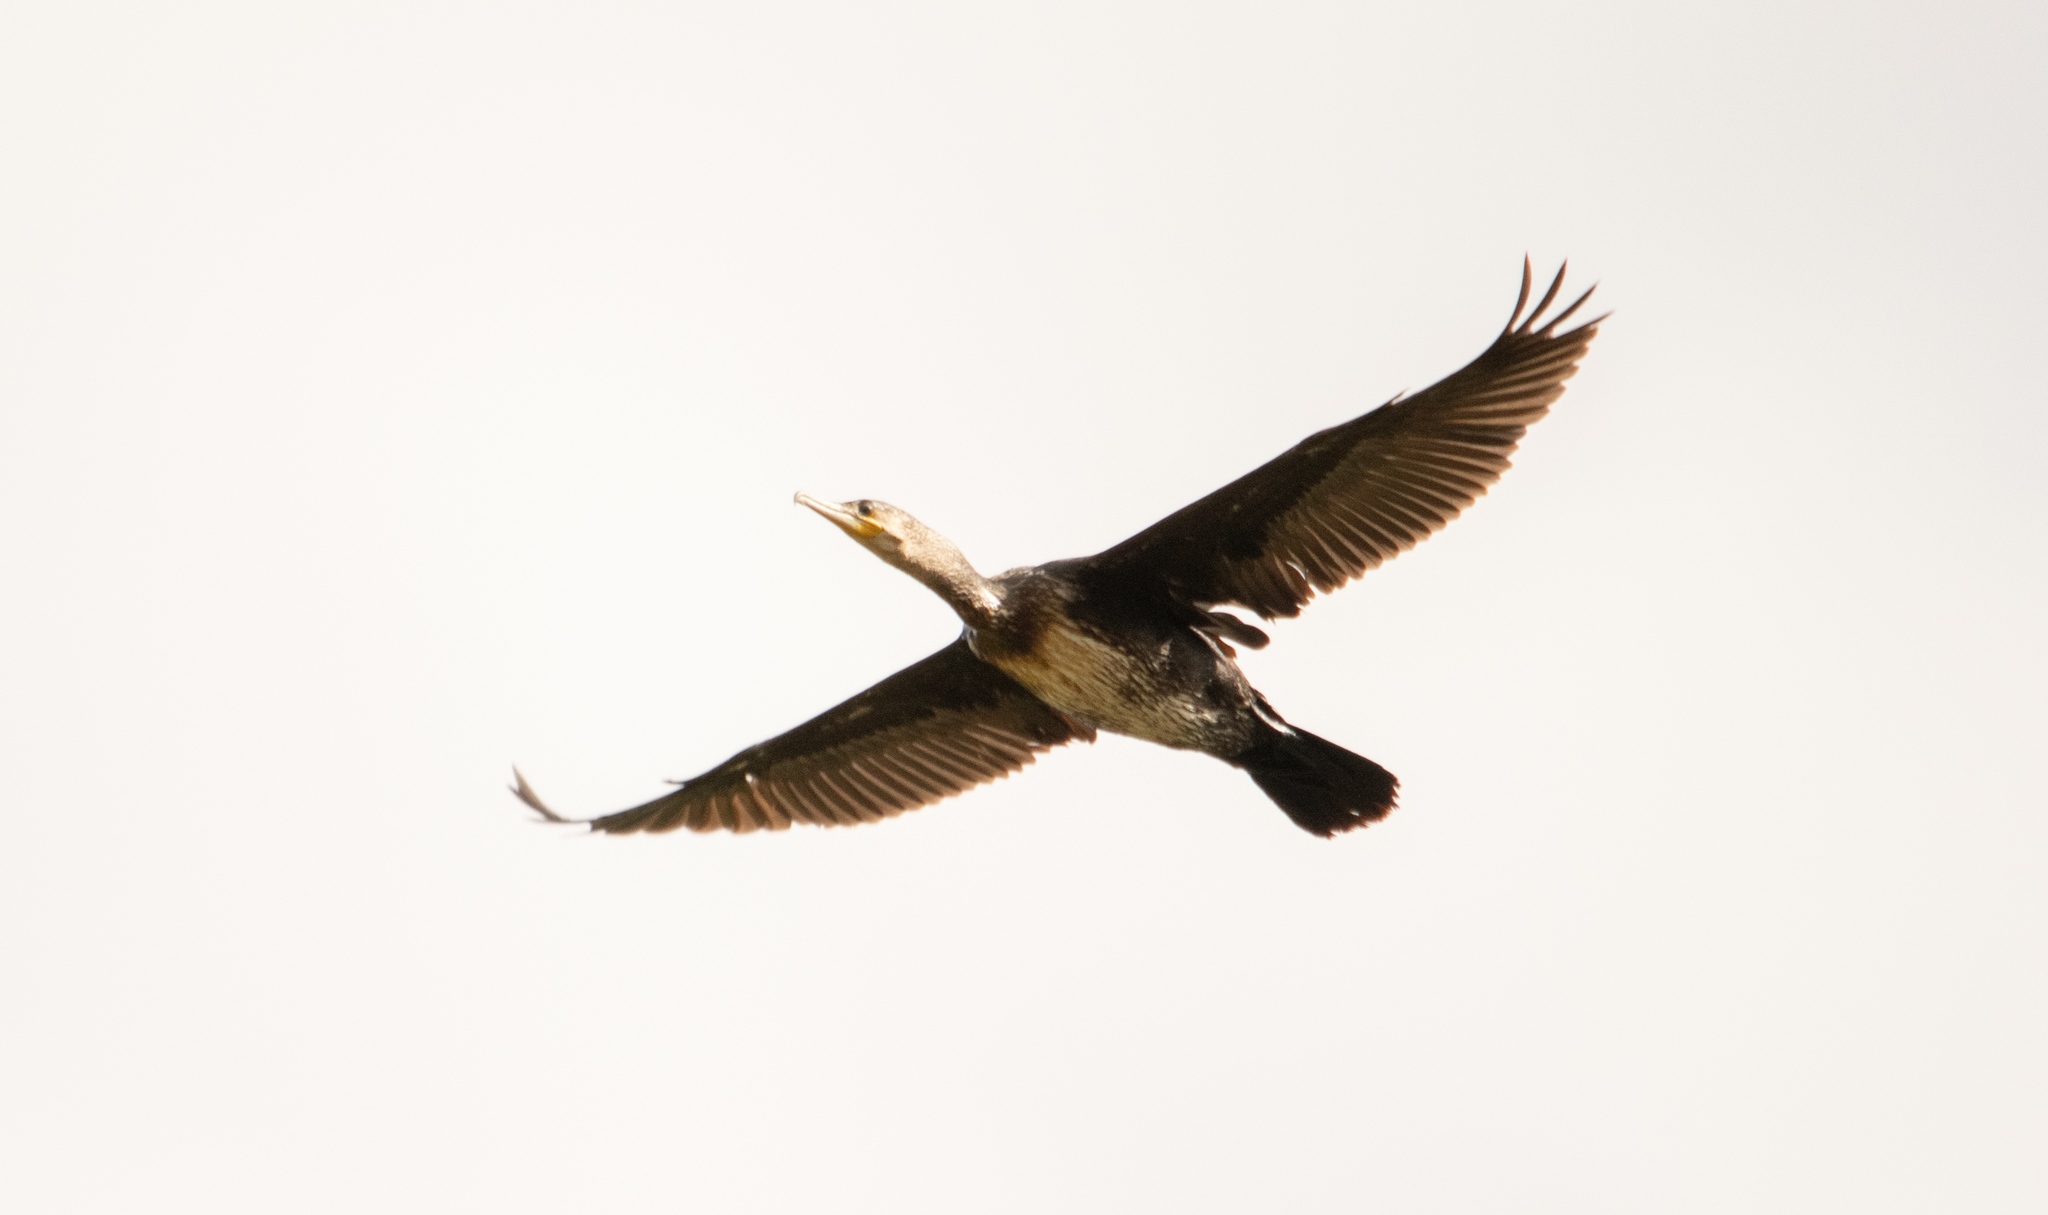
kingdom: Animalia
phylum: Chordata
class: Aves
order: Suliformes
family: Phalacrocoracidae
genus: Phalacrocorax
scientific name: Phalacrocorax carbo
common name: Great cormorant
